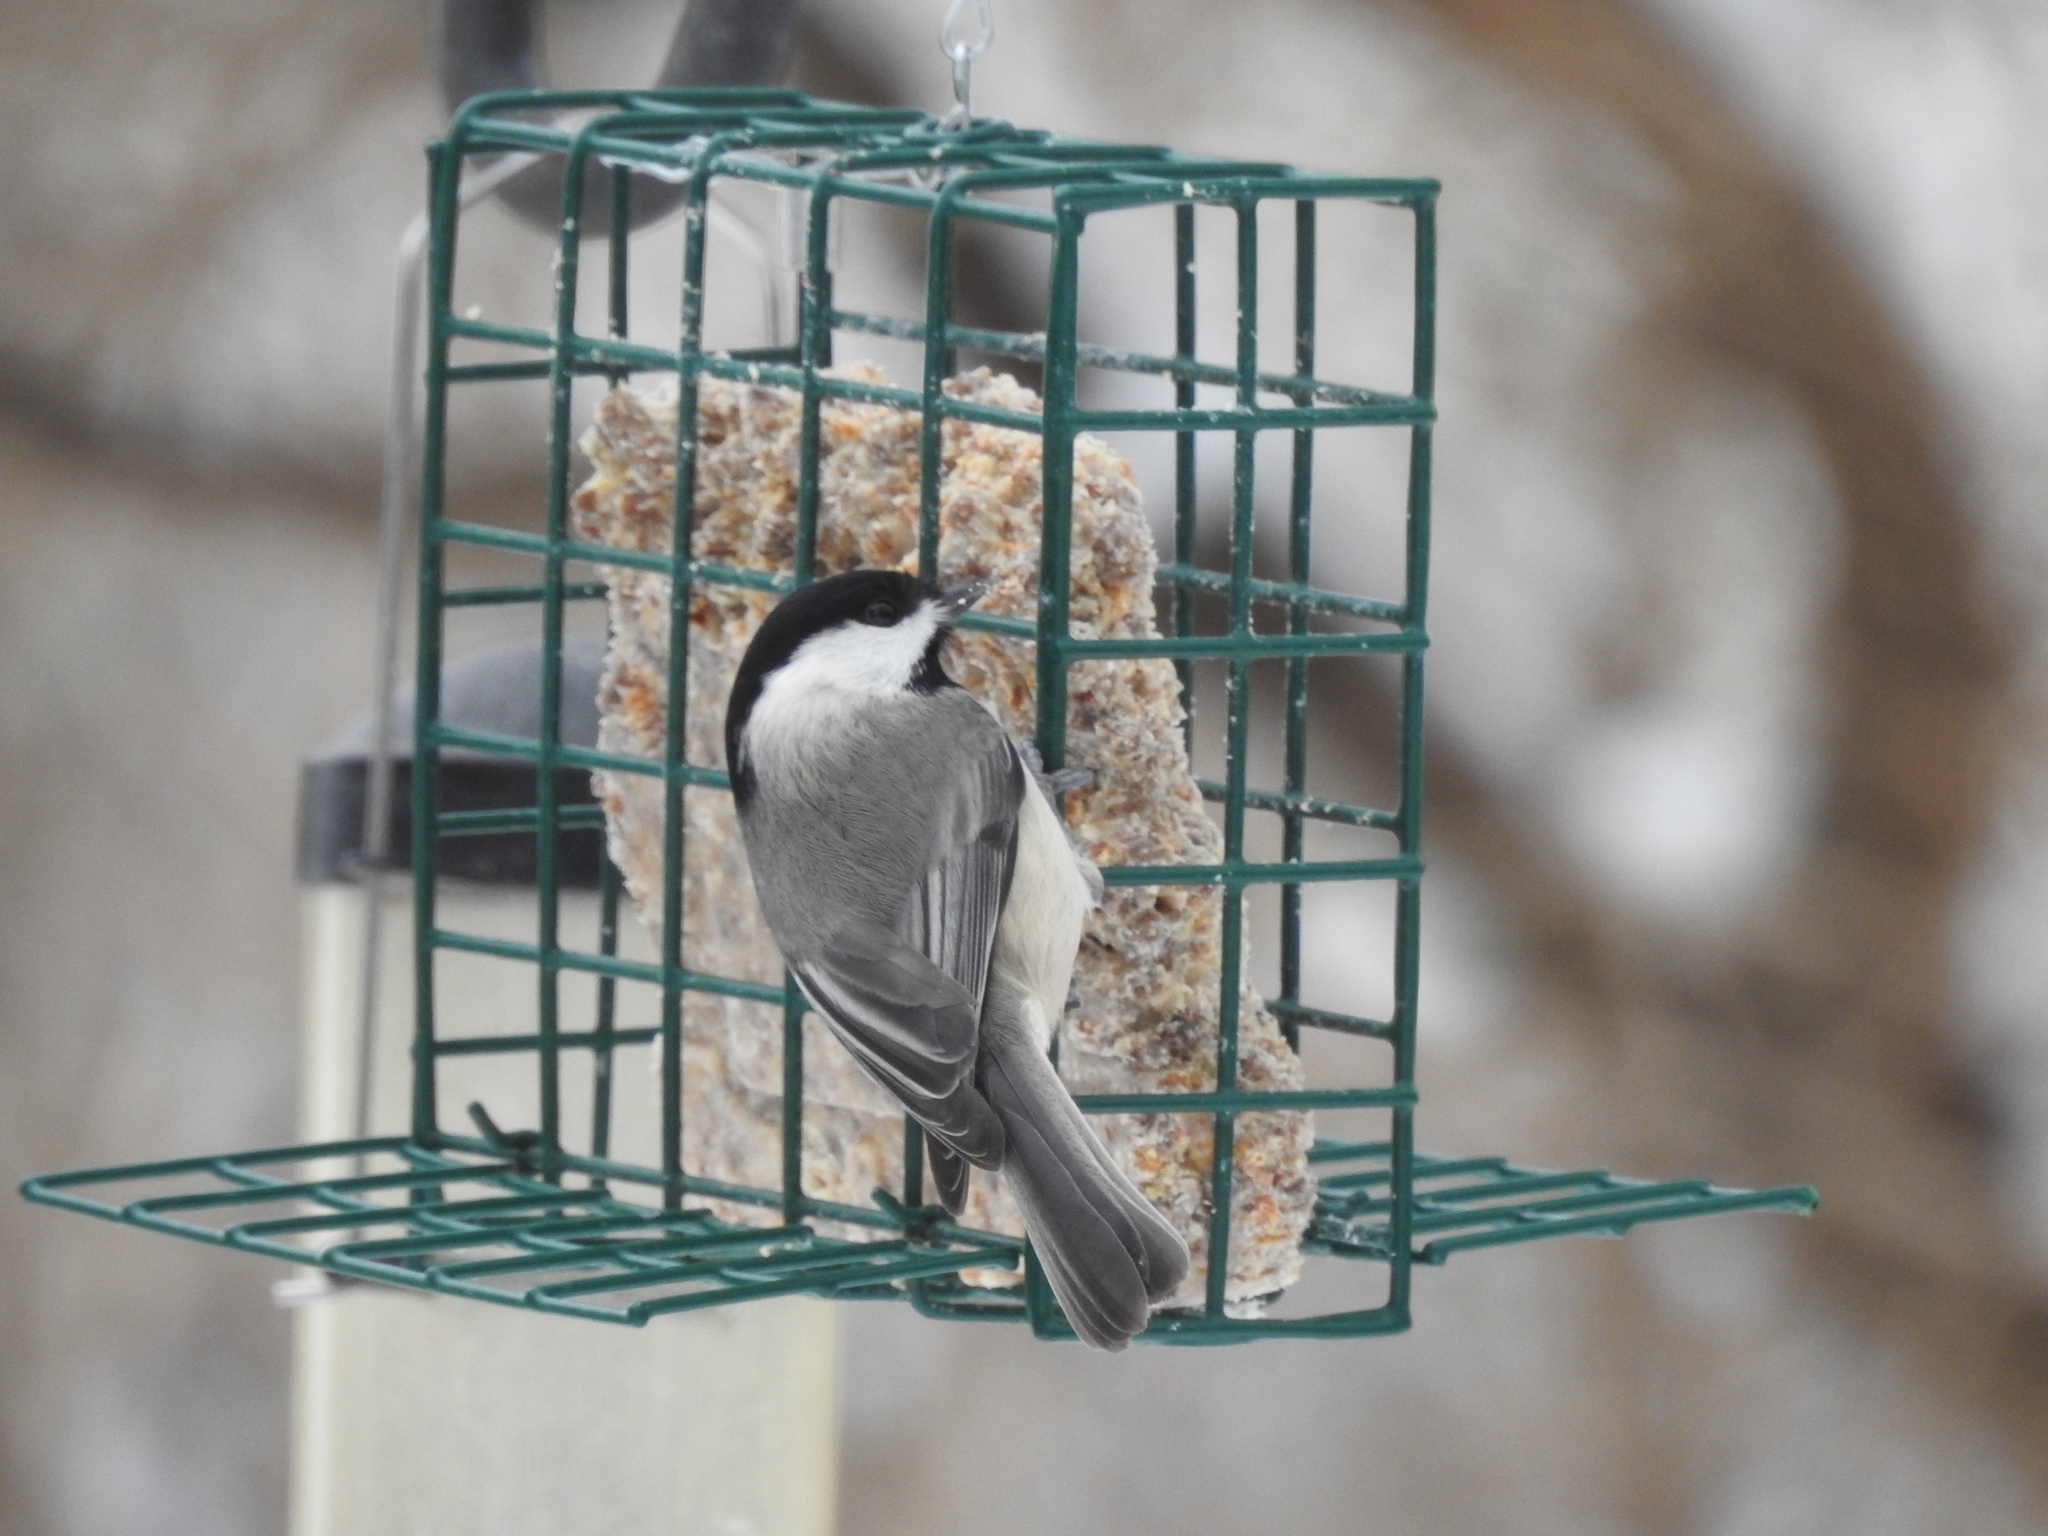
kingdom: Animalia
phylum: Chordata
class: Aves
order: Passeriformes
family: Paridae
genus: Poecile
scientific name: Poecile carolinensis
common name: Carolina chickadee
